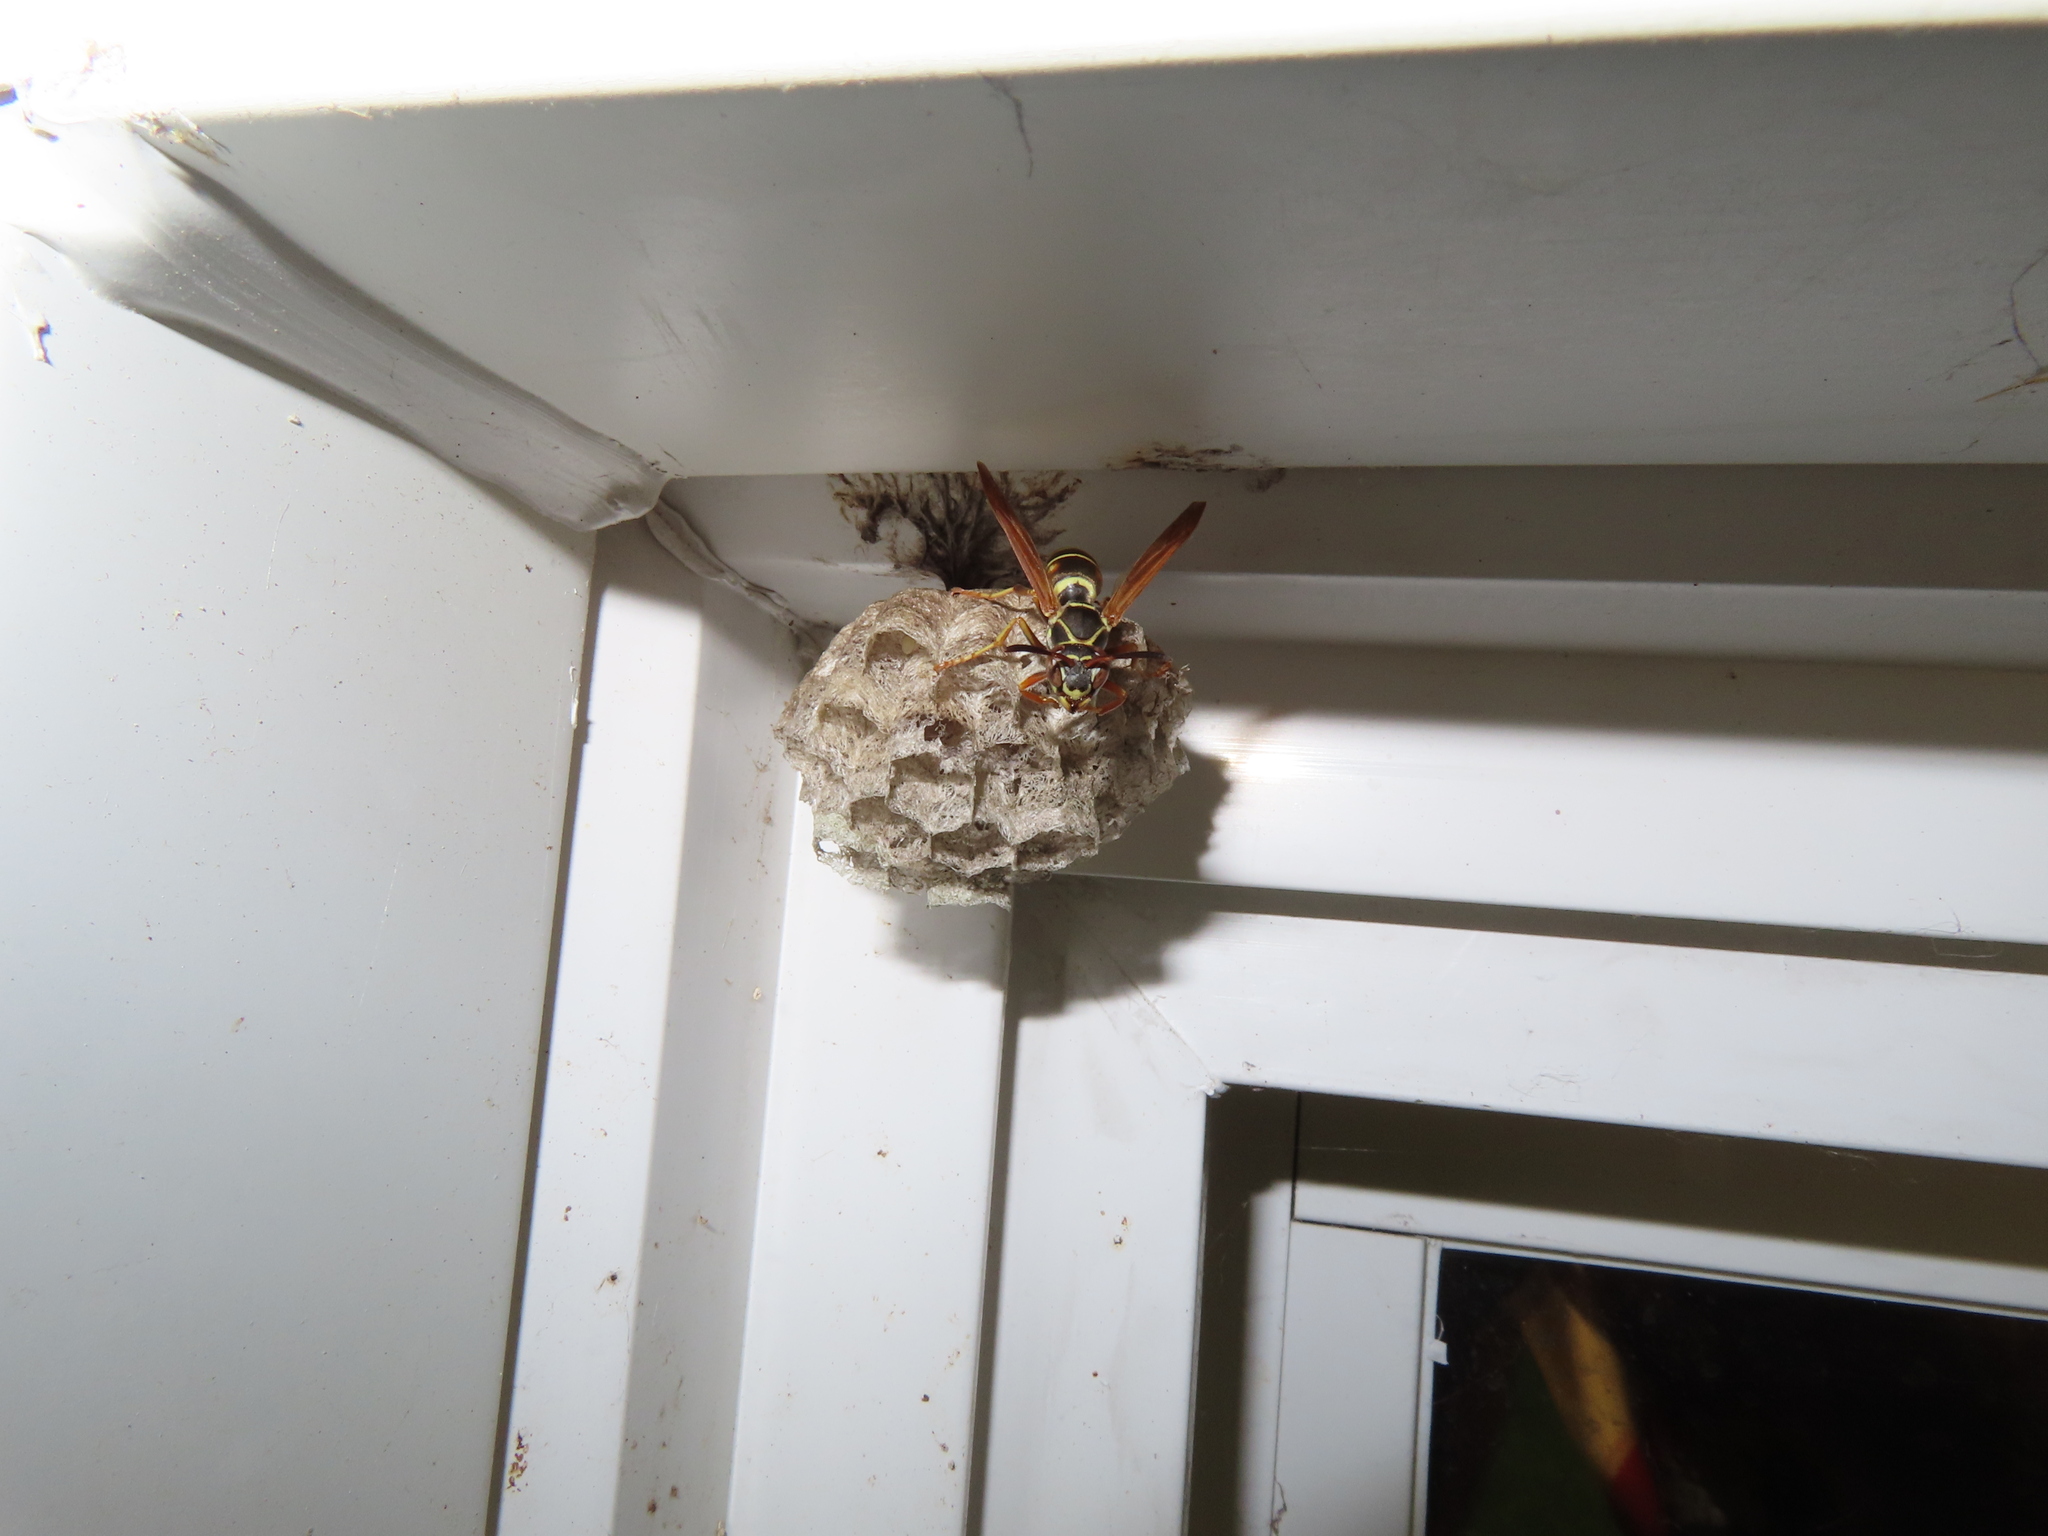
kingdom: Animalia
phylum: Arthropoda
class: Insecta
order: Hymenoptera
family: Eumenidae
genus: Polistes
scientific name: Polistes fuscatus
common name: Dark paper wasp
